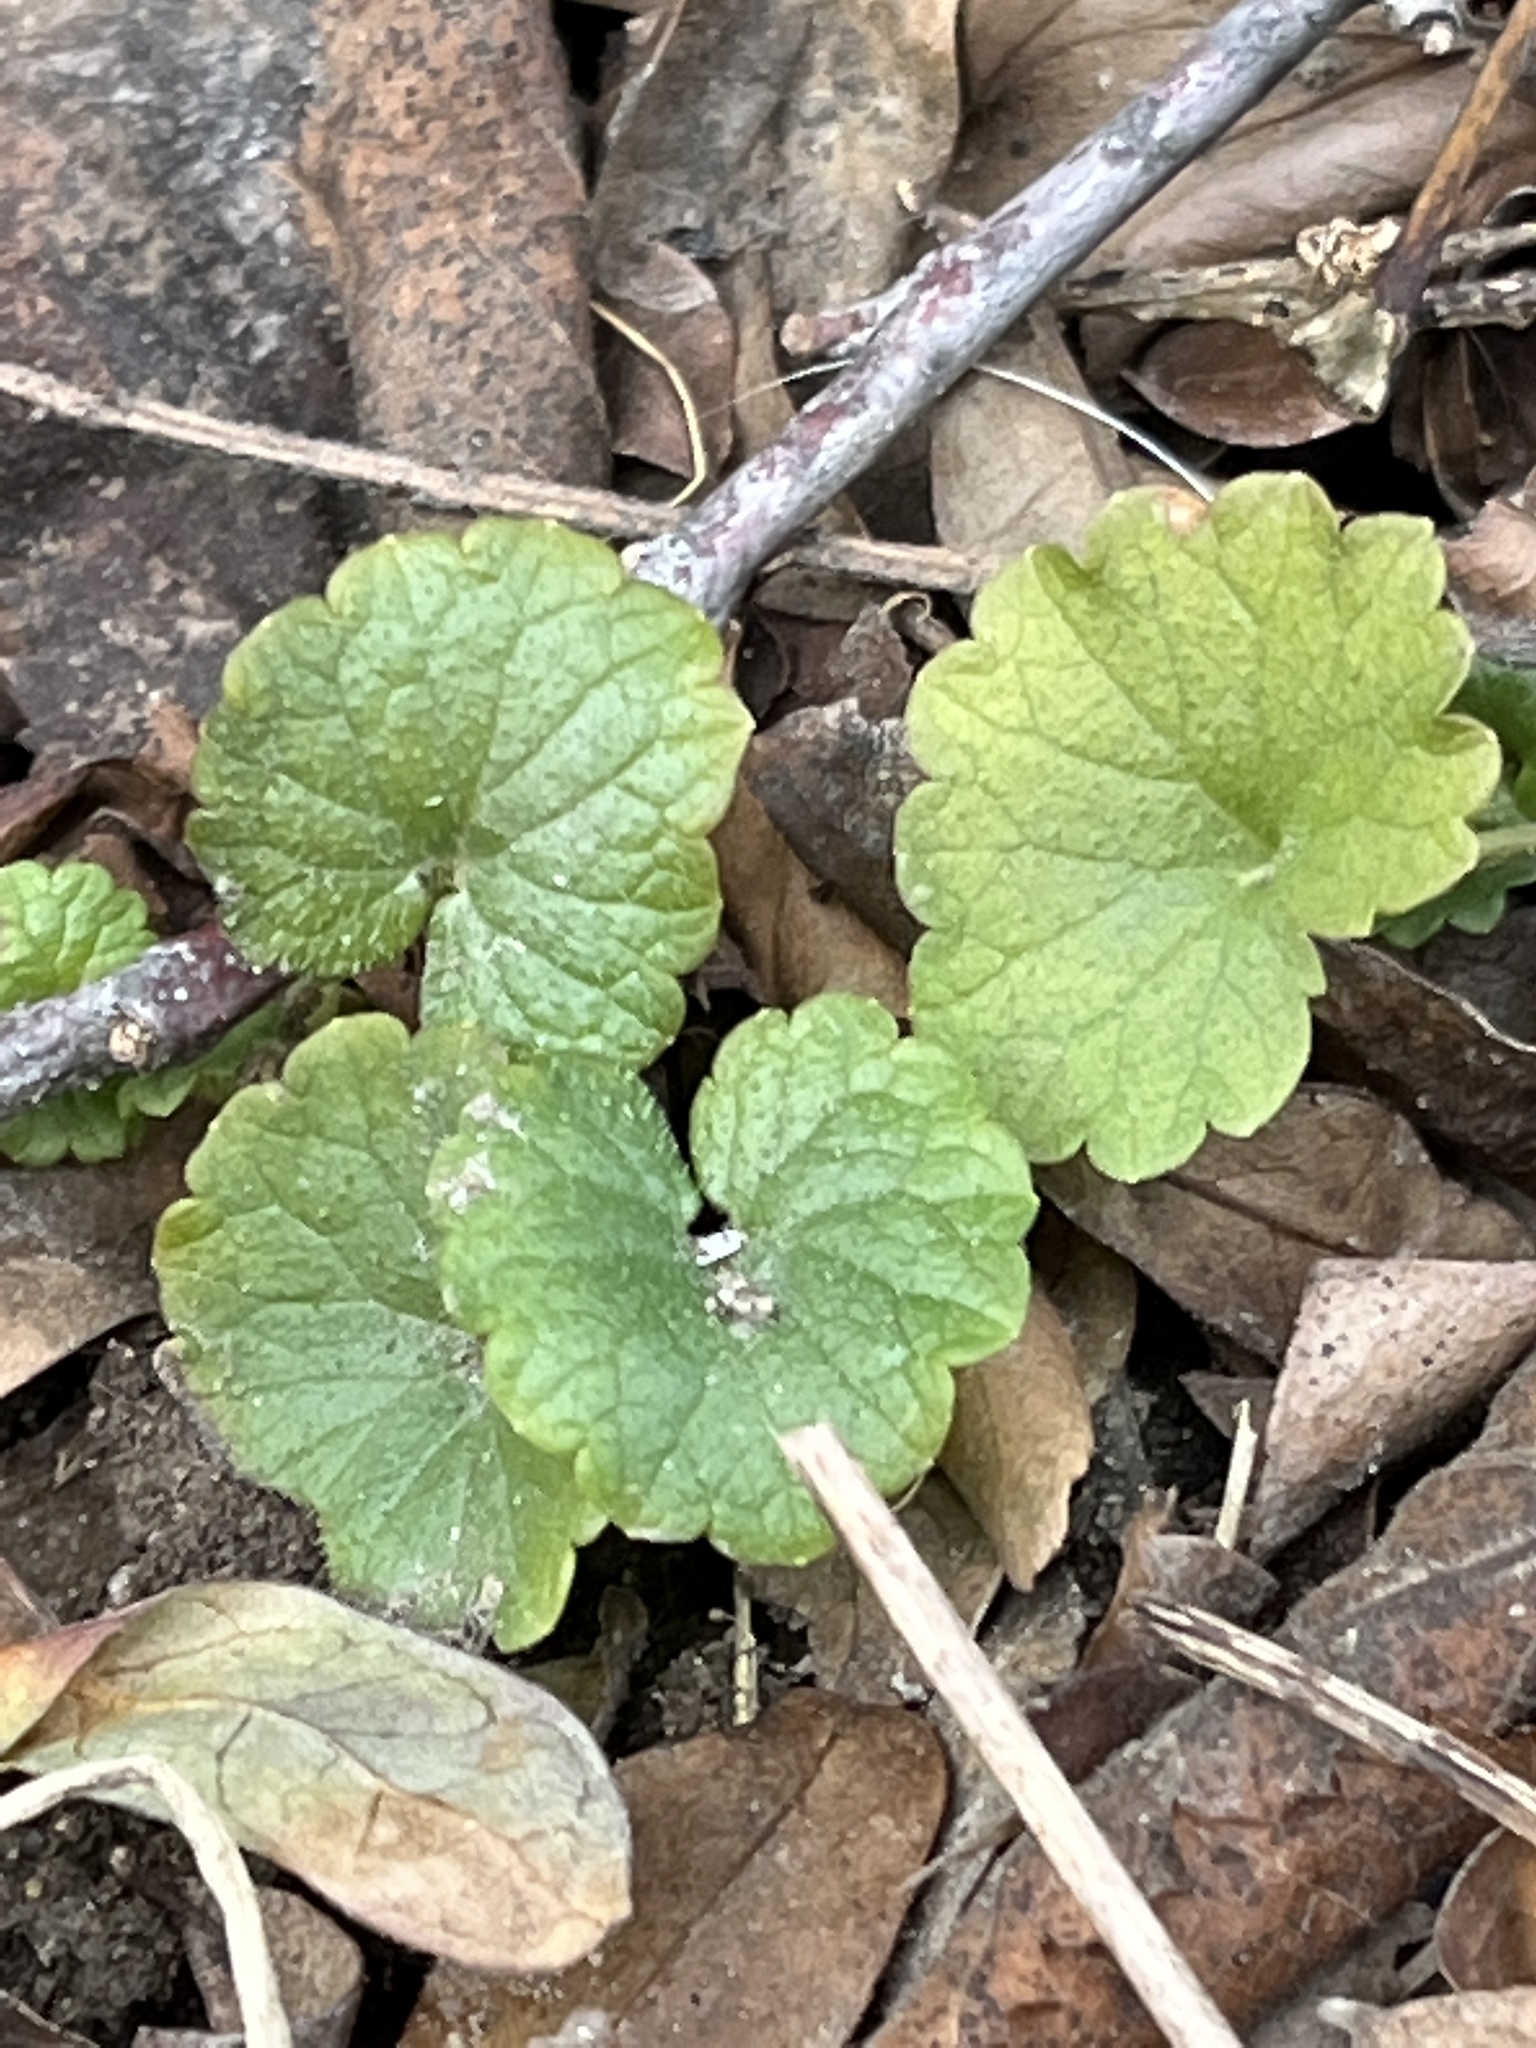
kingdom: Plantae
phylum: Tracheophyta
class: Magnoliopsida
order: Lamiales
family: Lamiaceae
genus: Glechoma
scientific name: Glechoma hederacea
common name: Ground ivy
